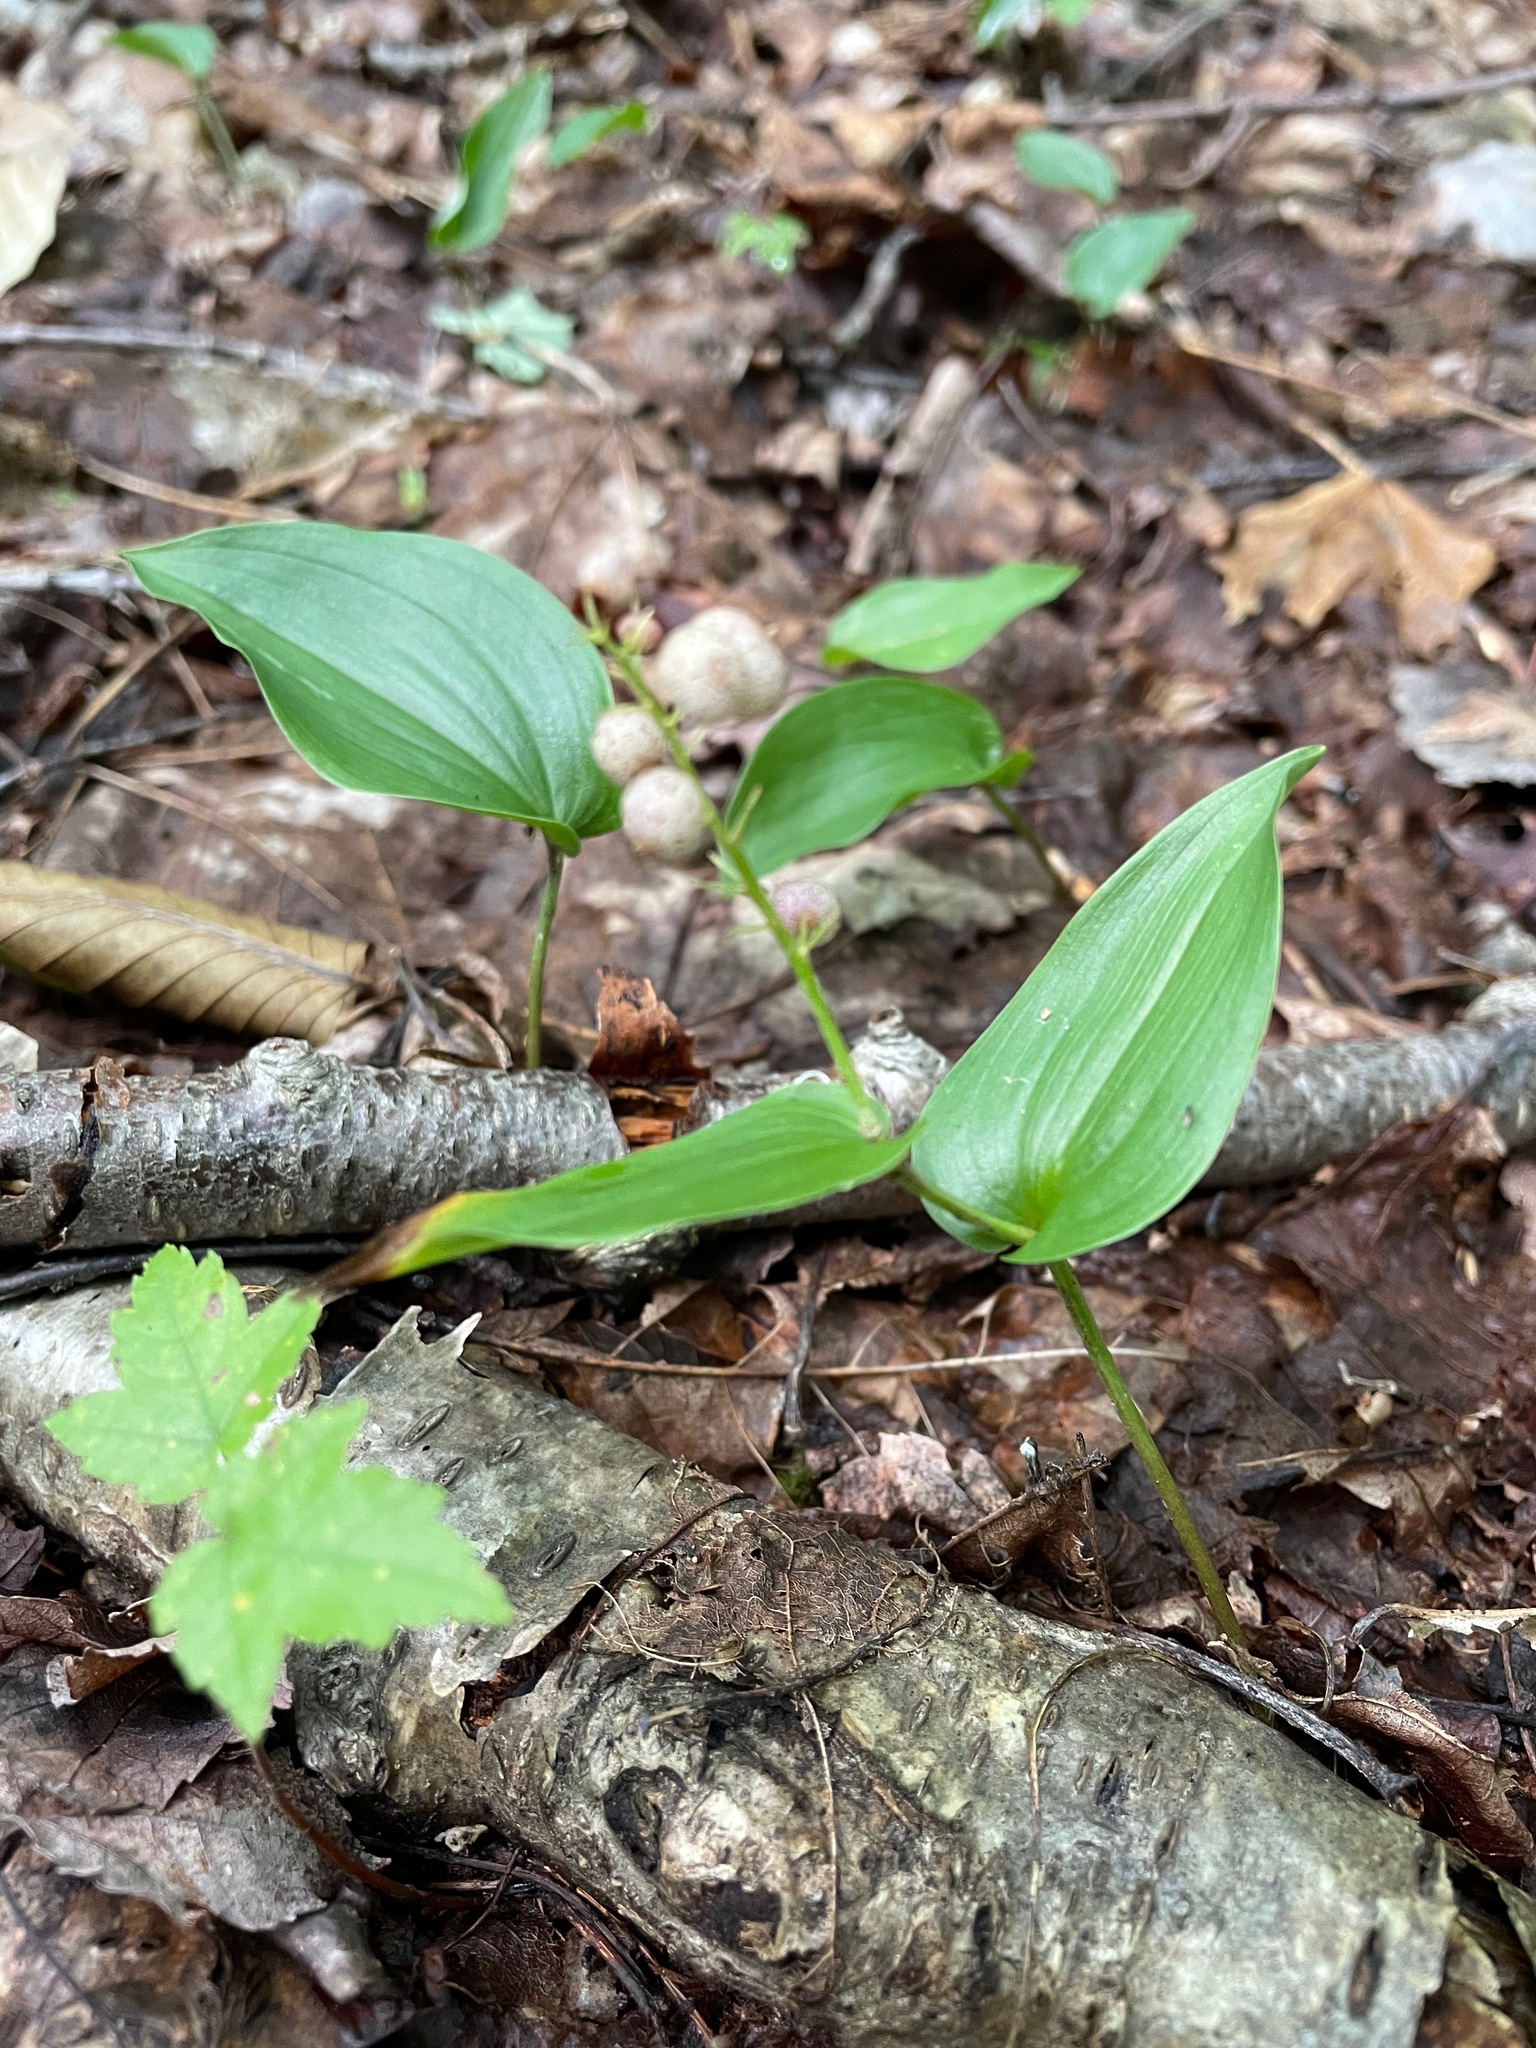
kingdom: Plantae
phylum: Tracheophyta
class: Liliopsida
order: Asparagales
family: Asparagaceae
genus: Maianthemum
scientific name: Maianthemum canadense
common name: False lily-of-the-valley
